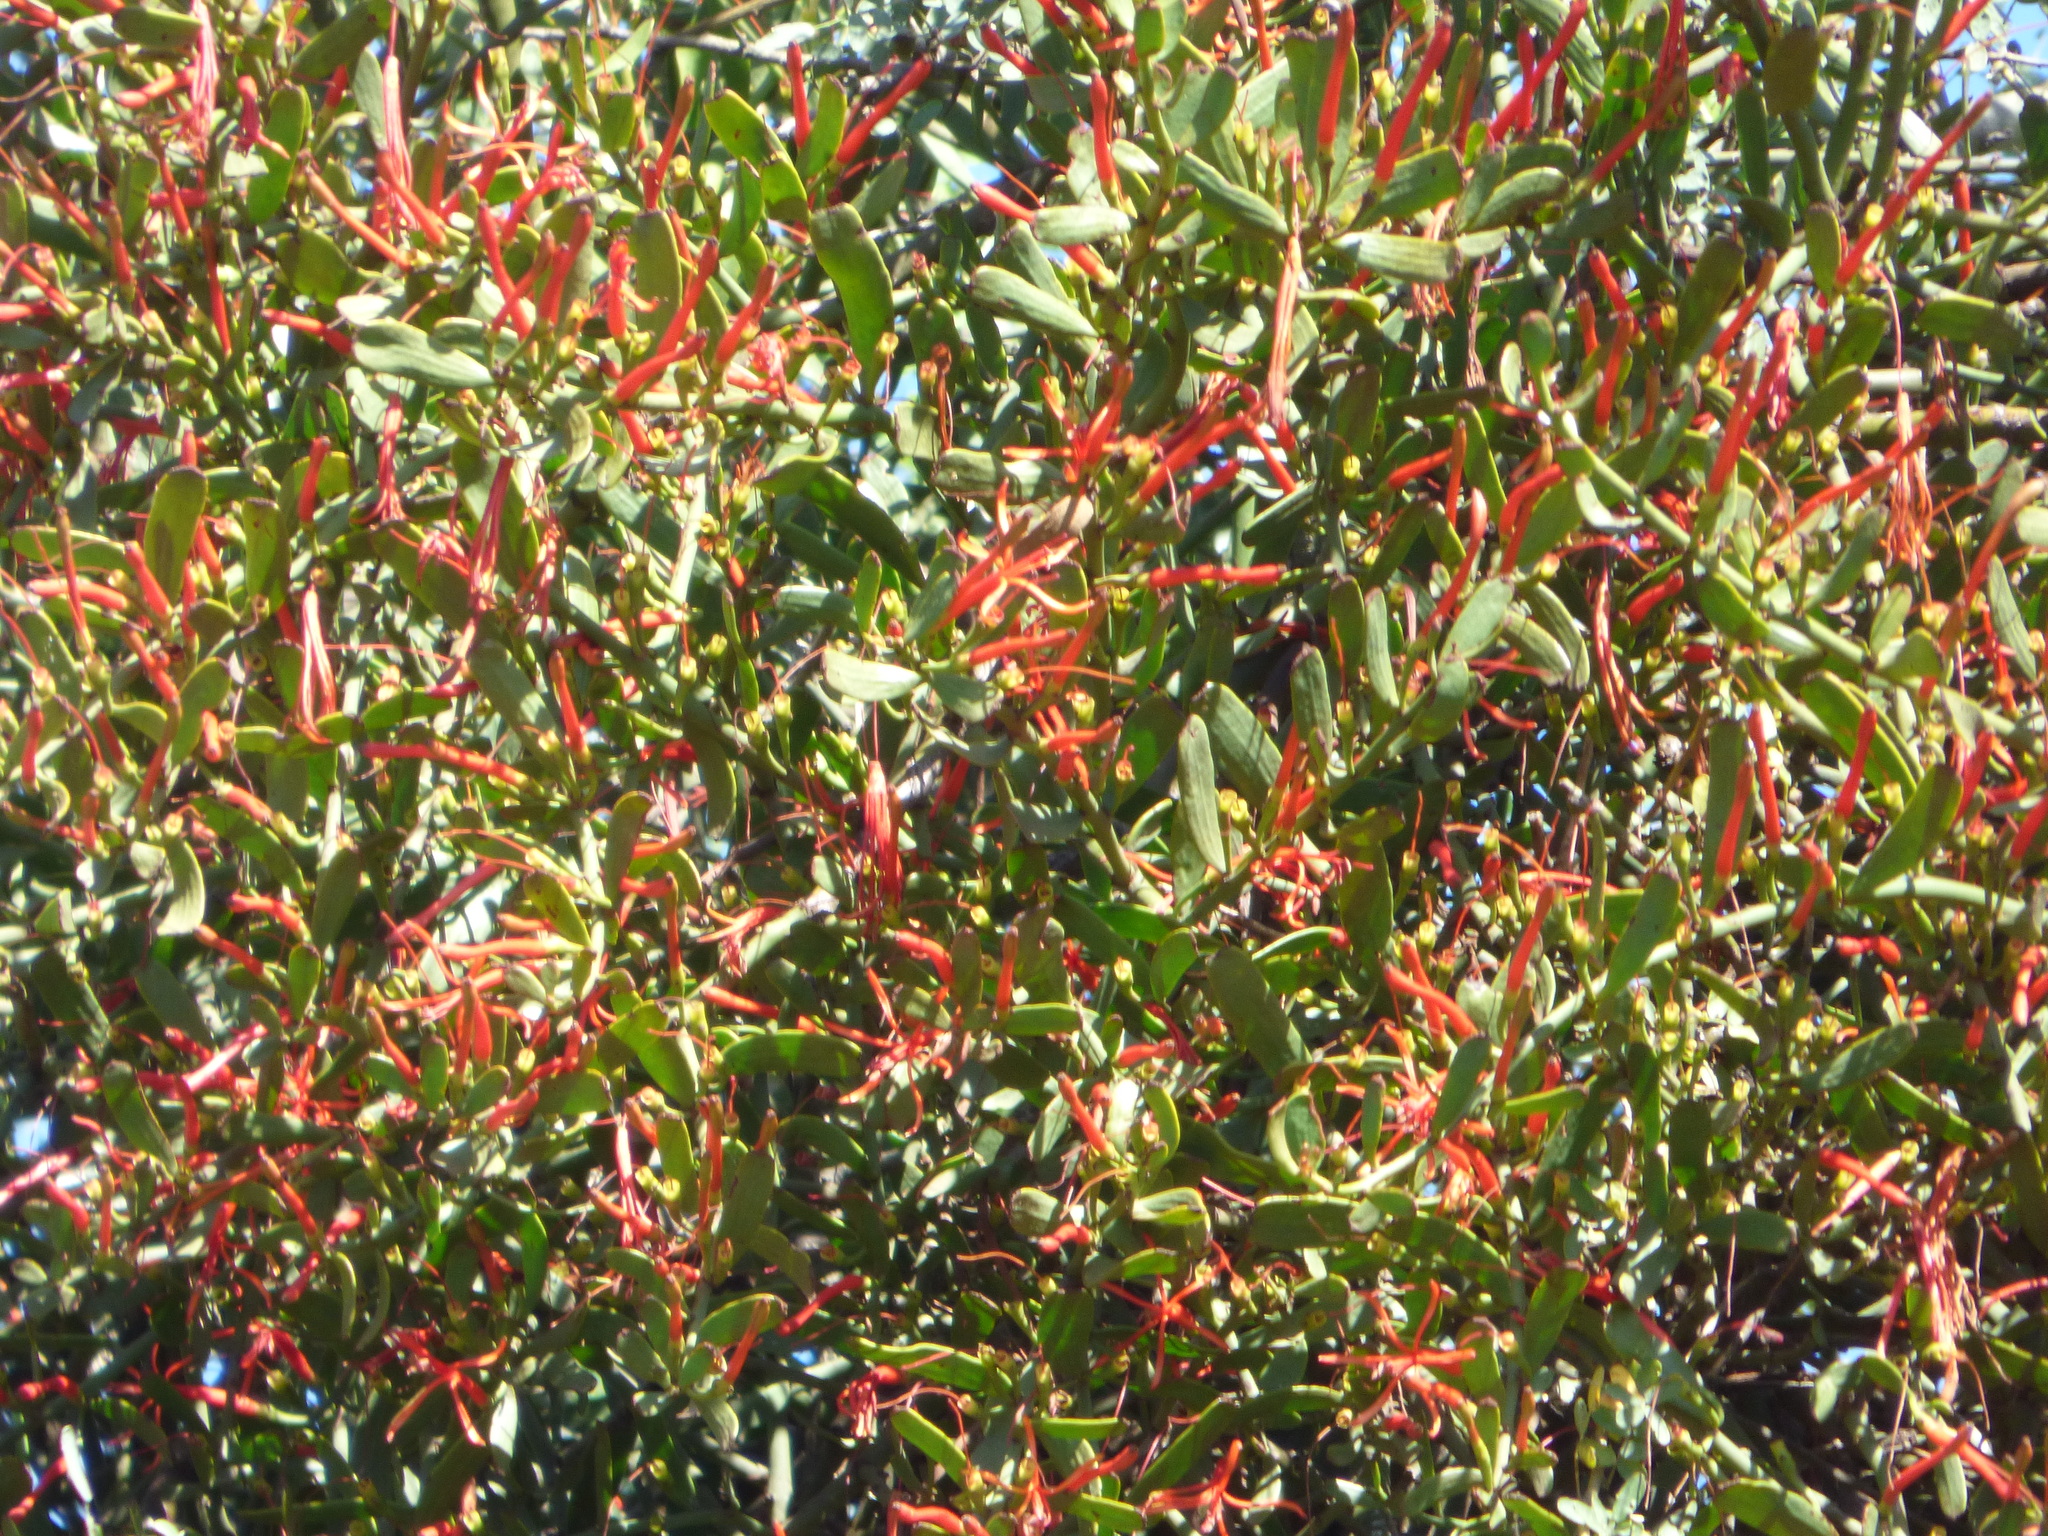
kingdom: Plantae
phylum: Tracheophyta
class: Magnoliopsida
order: Santalales
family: Loranthaceae
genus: Ligaria
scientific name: Ligaria cuneifolia
